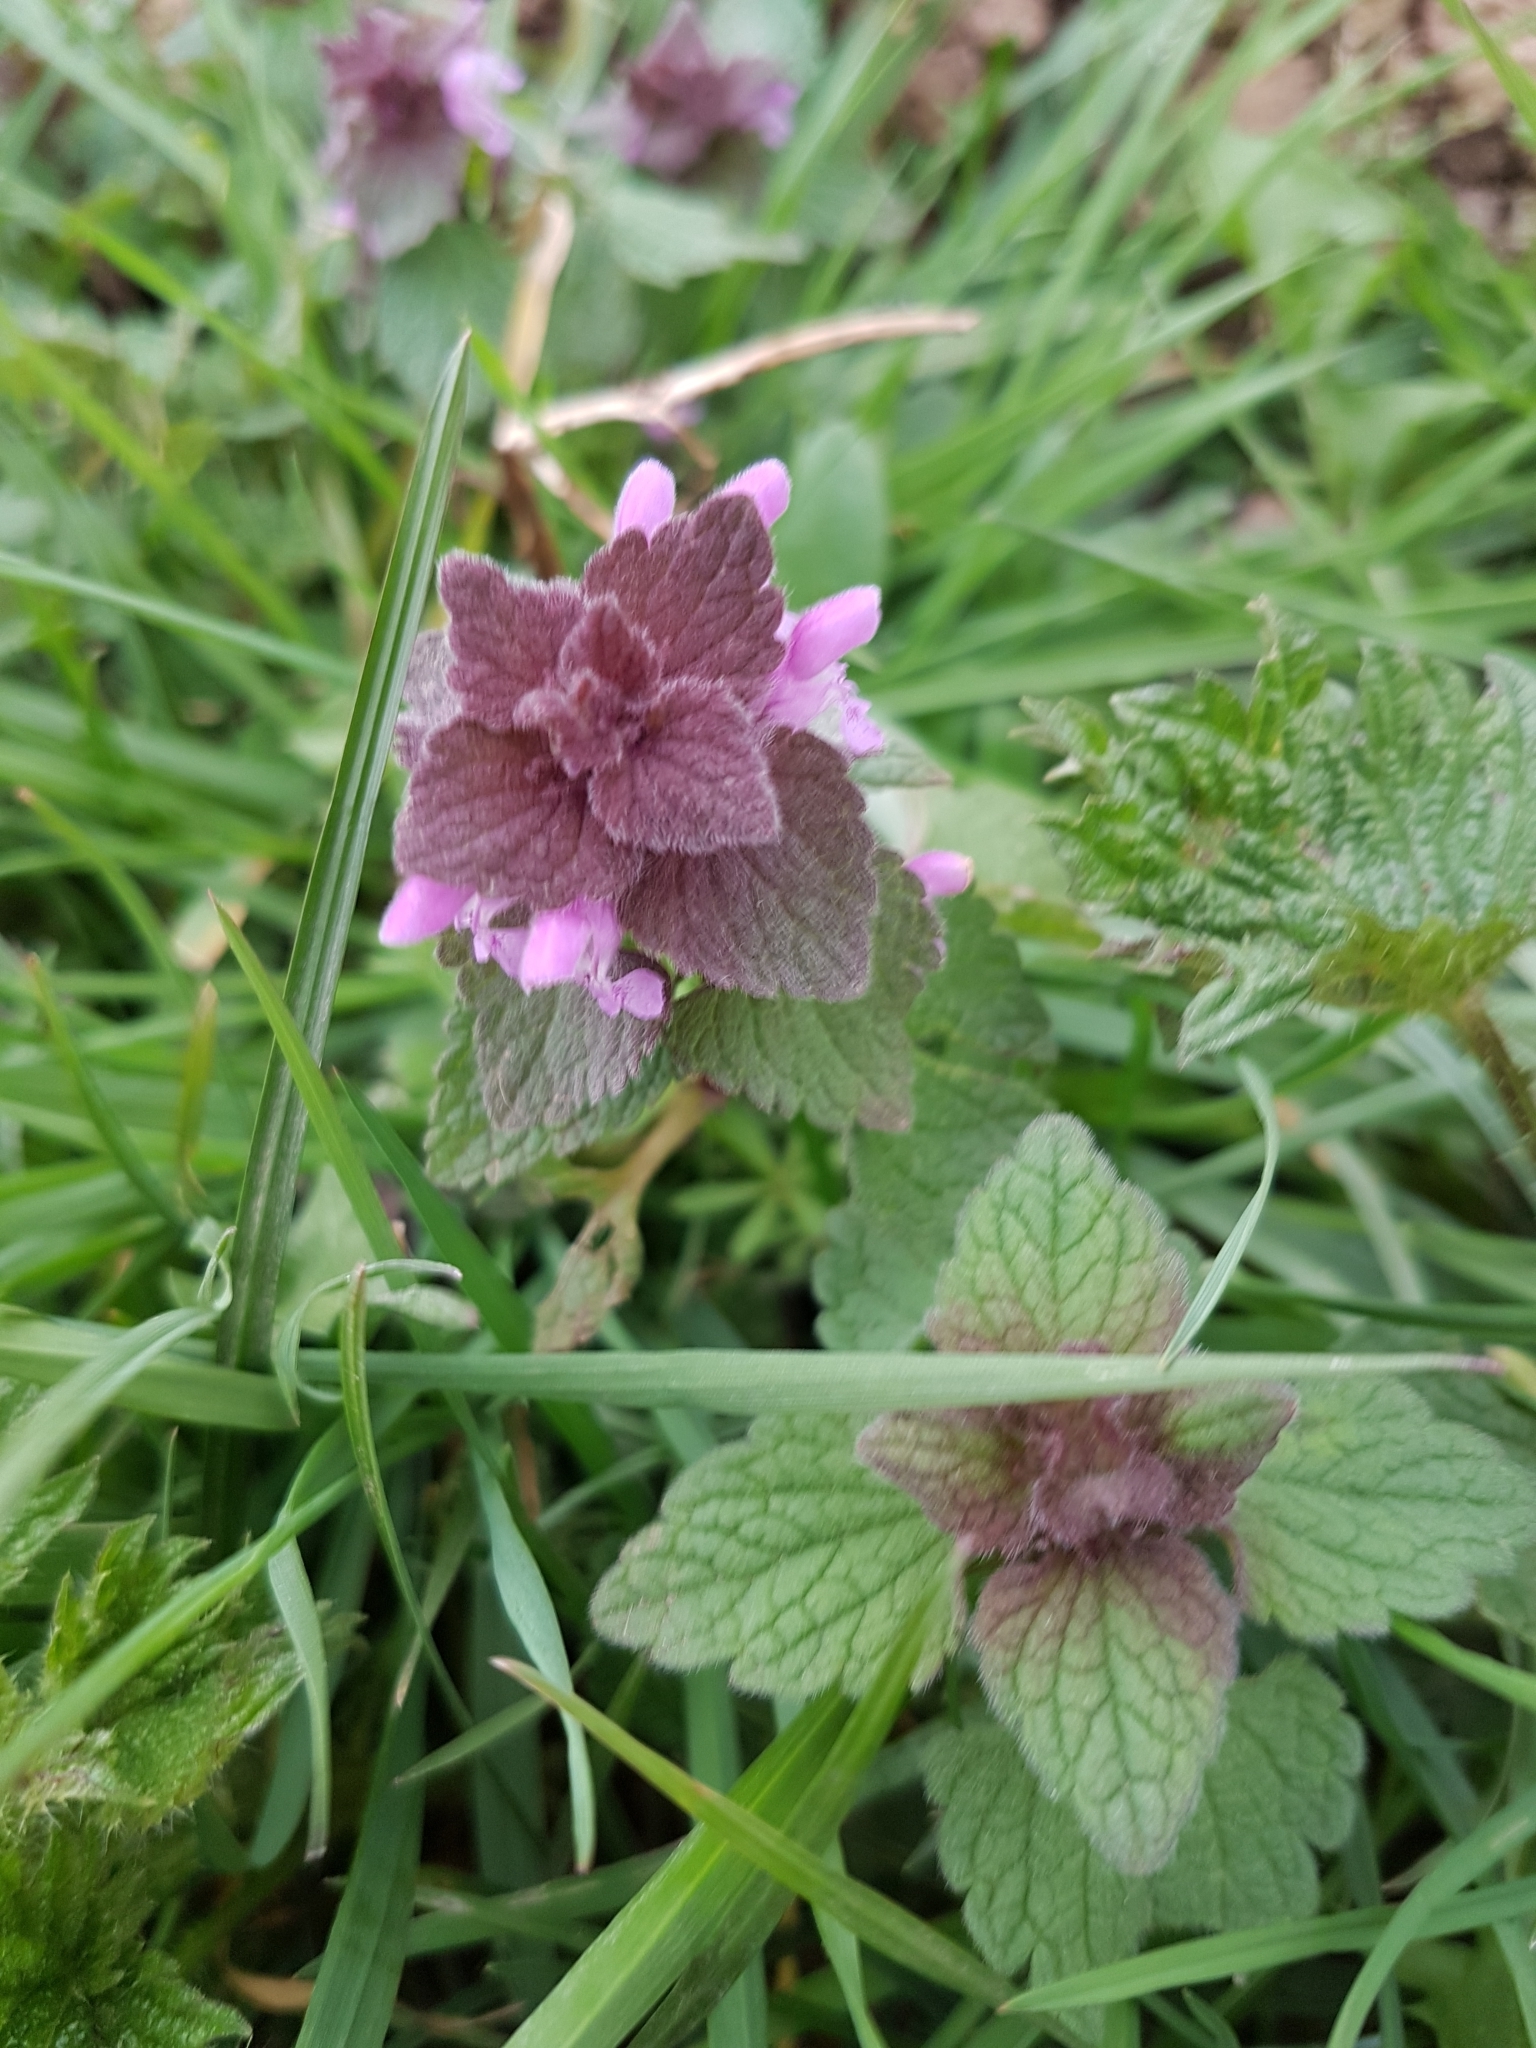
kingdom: Plantae
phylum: Tracheophyta
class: Magnoliopsida
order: Lamiales
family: Lamiaceae
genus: Lamium
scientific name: Lamium purpureum
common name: Red dead-nettle
